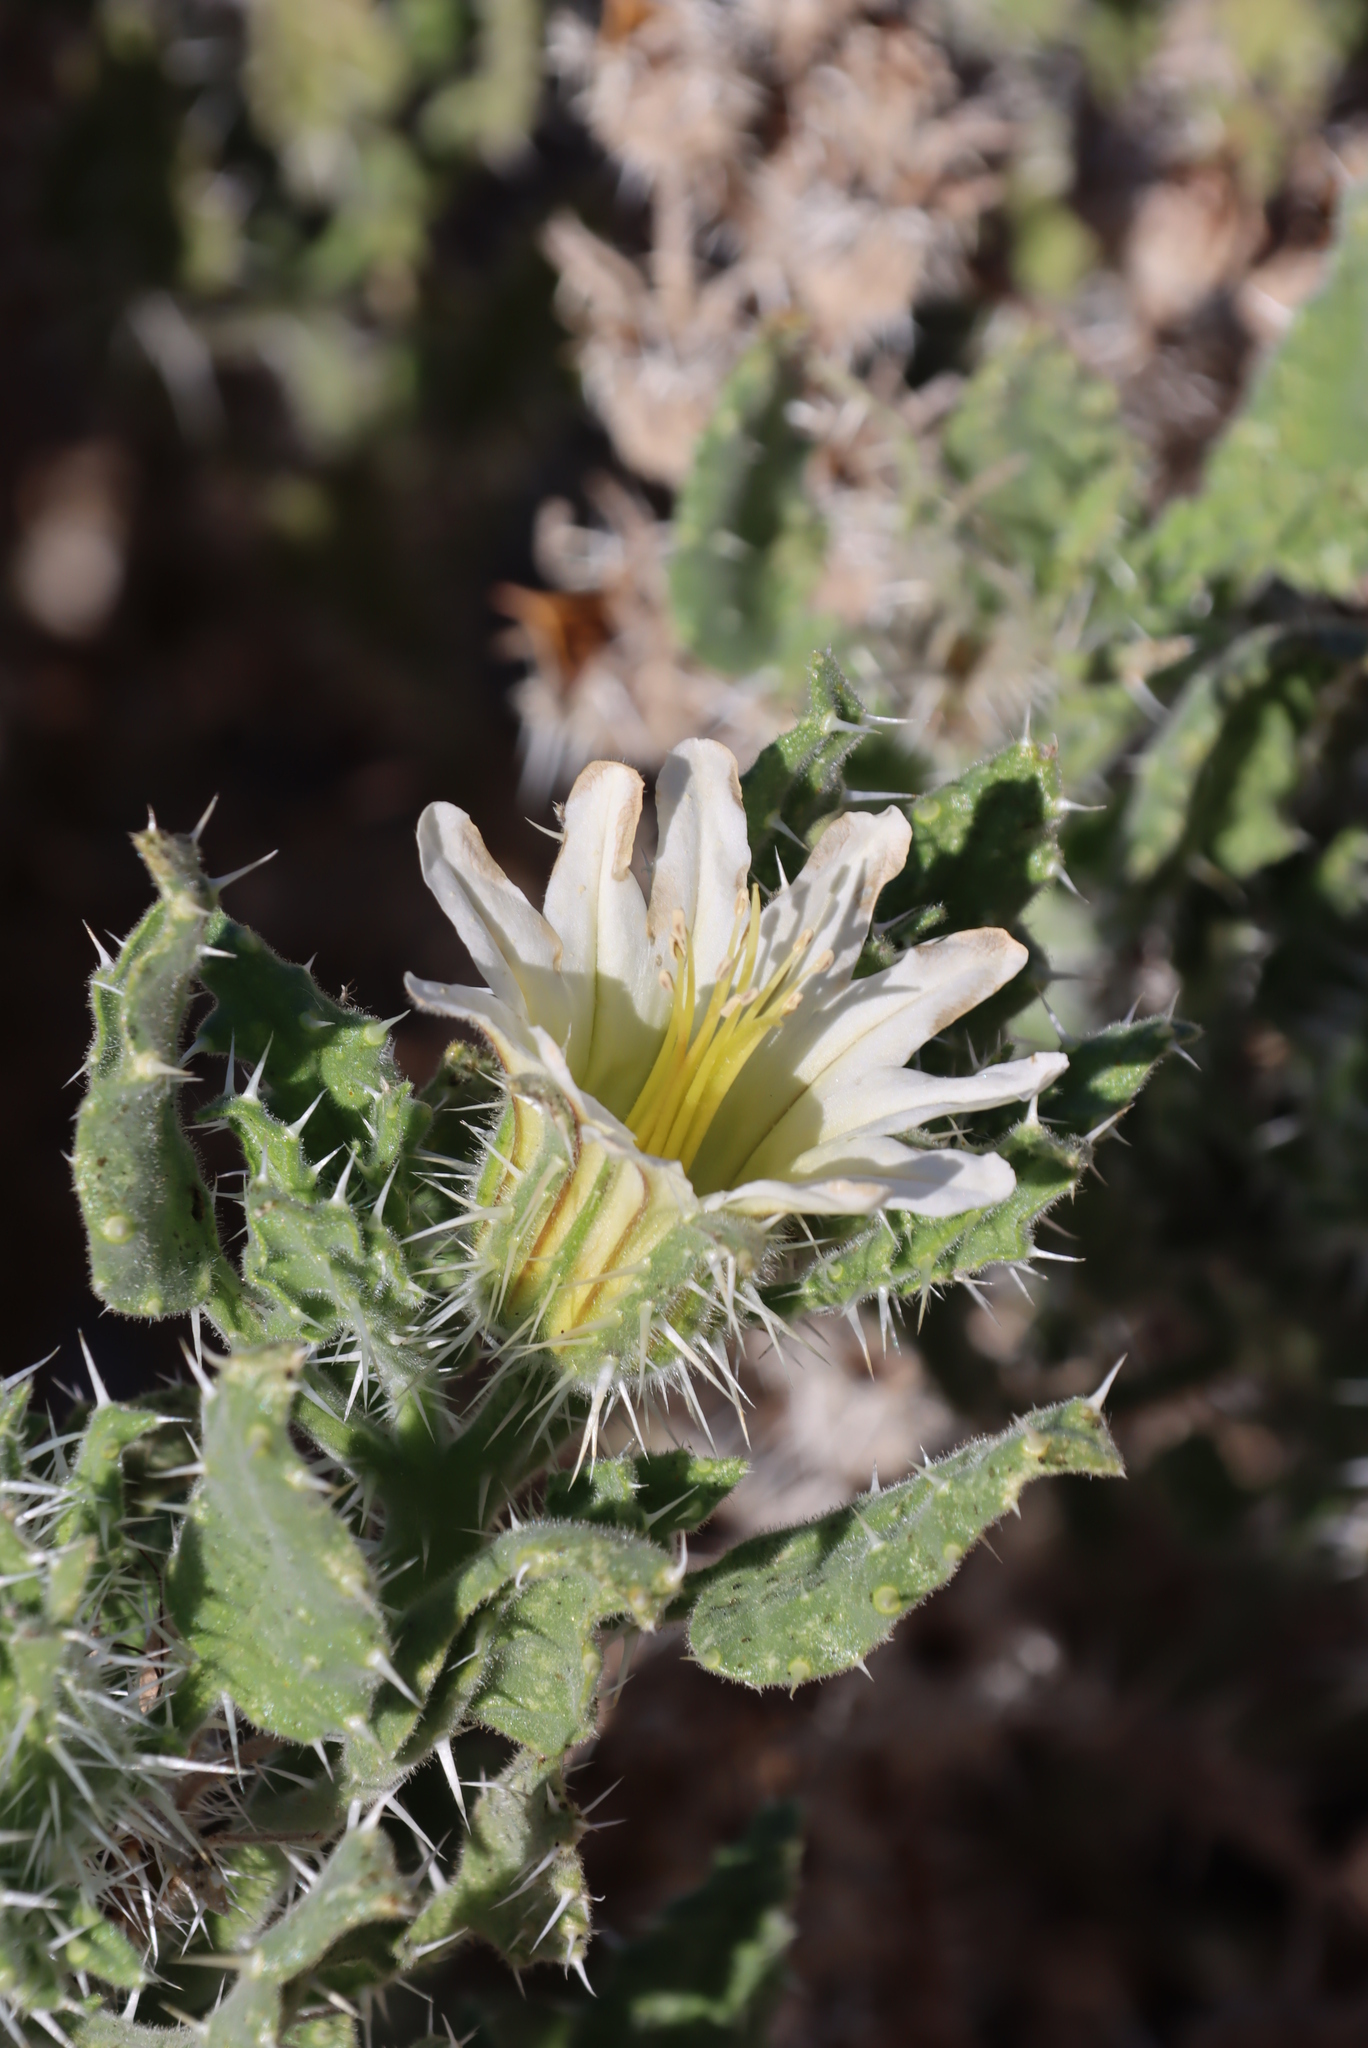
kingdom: Plantae
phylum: Tracheophyta
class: Magnoliopsida
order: Boraginales
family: Boraginaceae
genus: Codon
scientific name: Codon royenii
